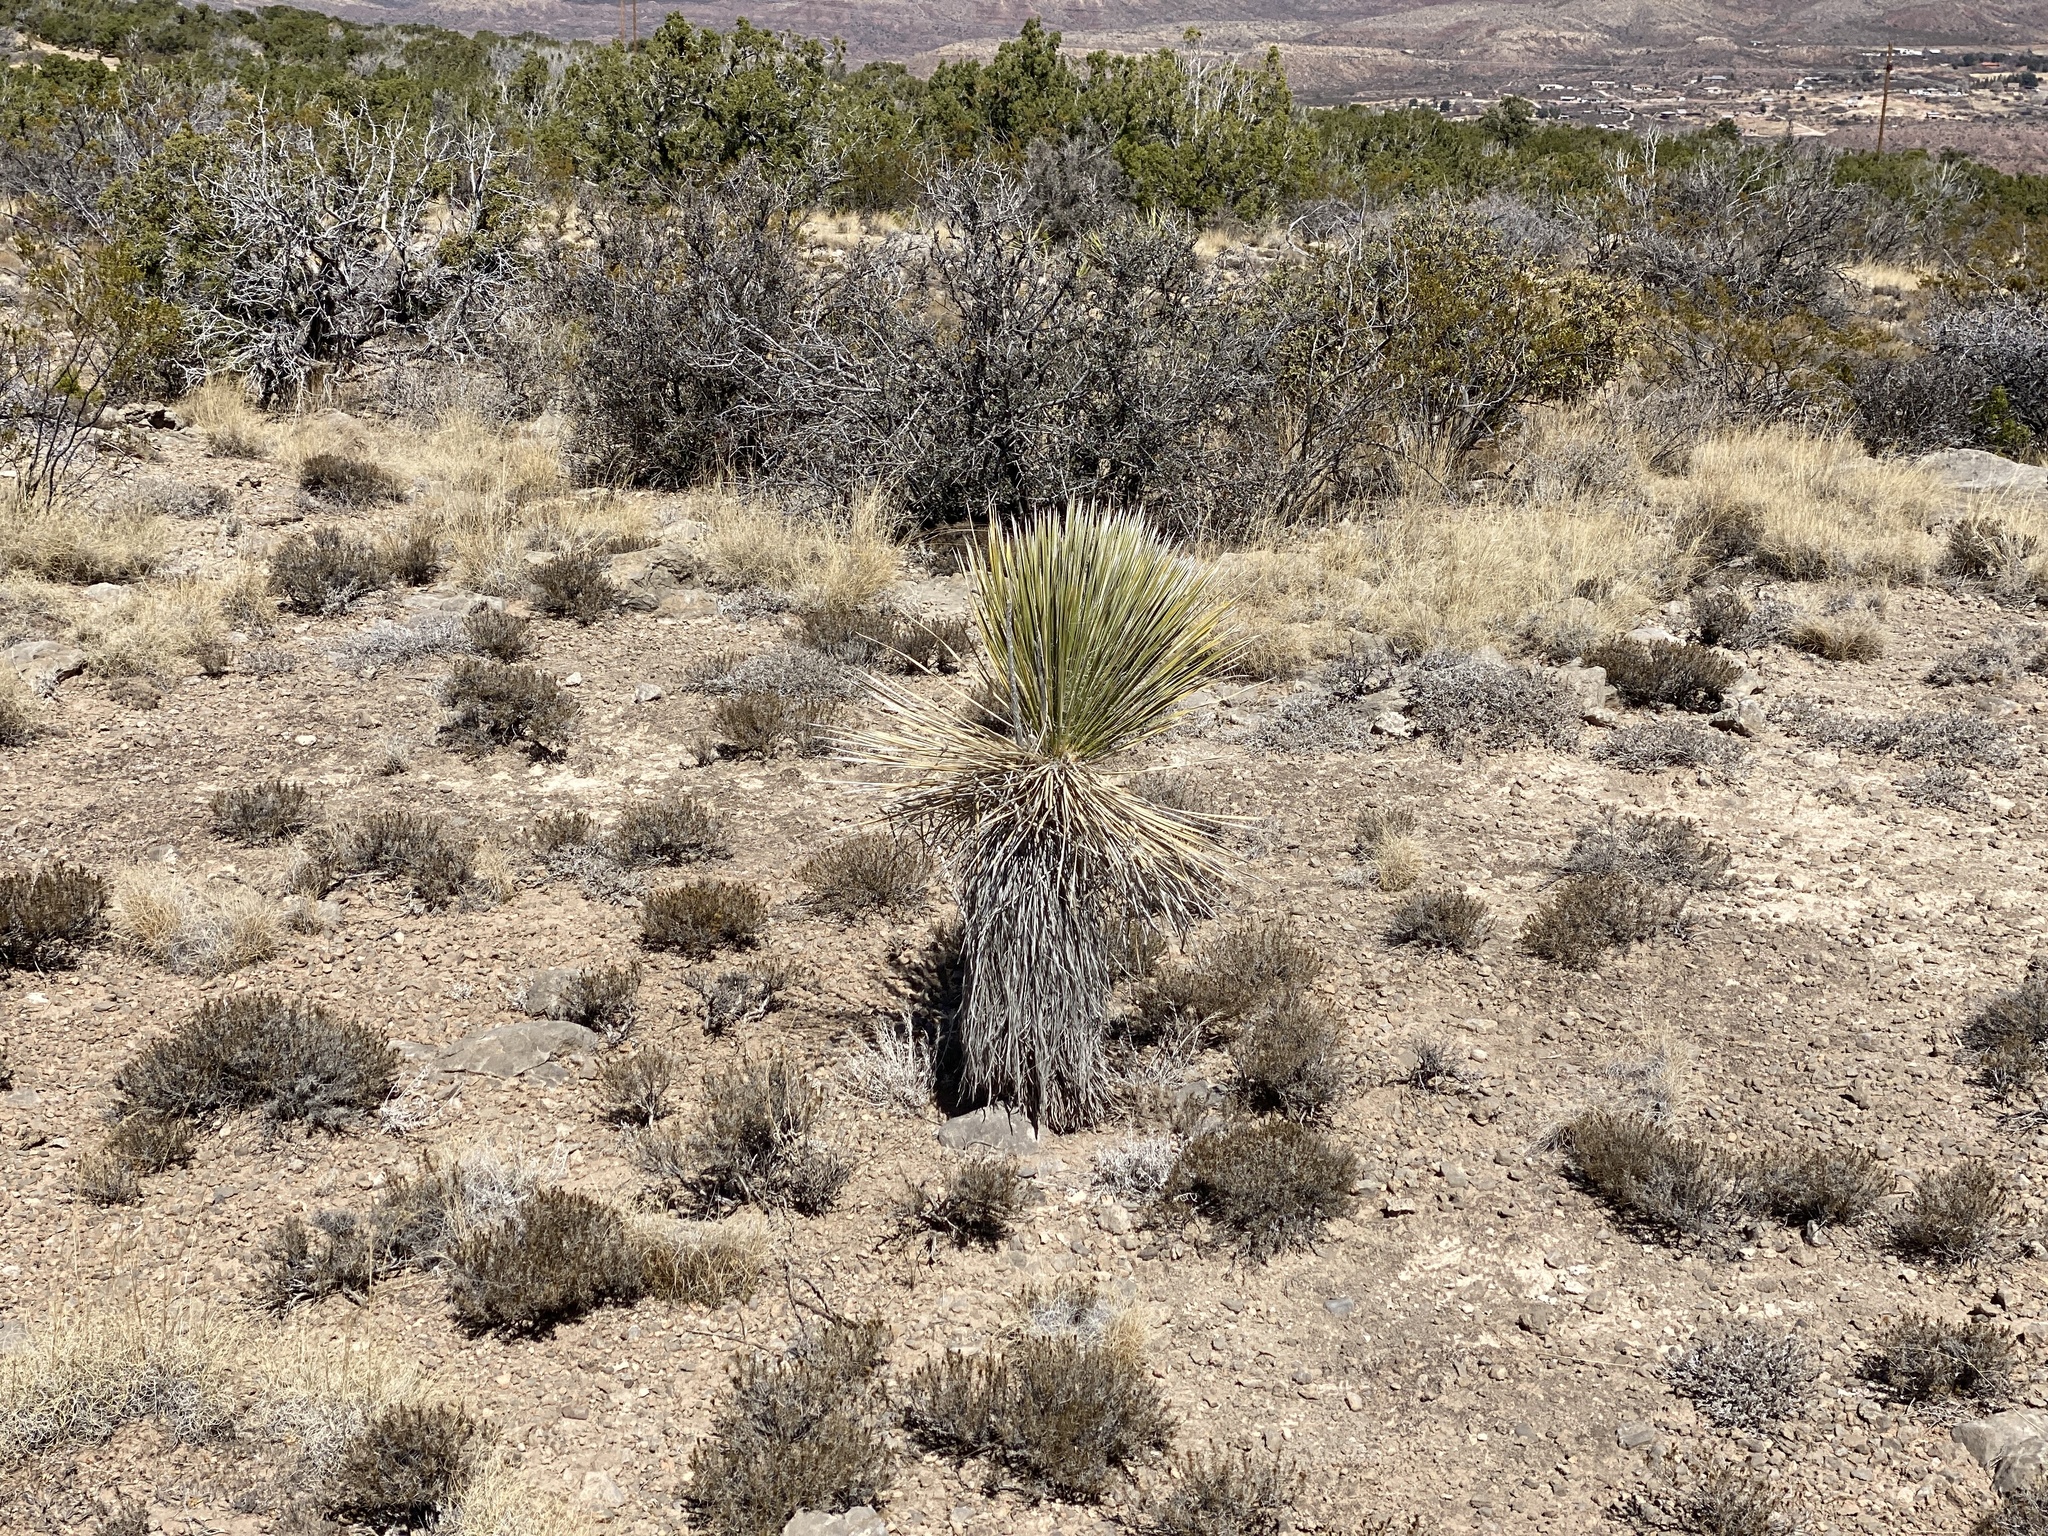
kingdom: Plantae
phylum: Tracheophyta
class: Liliopsida
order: Asparagales
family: Asparagaceae
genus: Yucca
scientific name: Yucca elata
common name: Palmella
